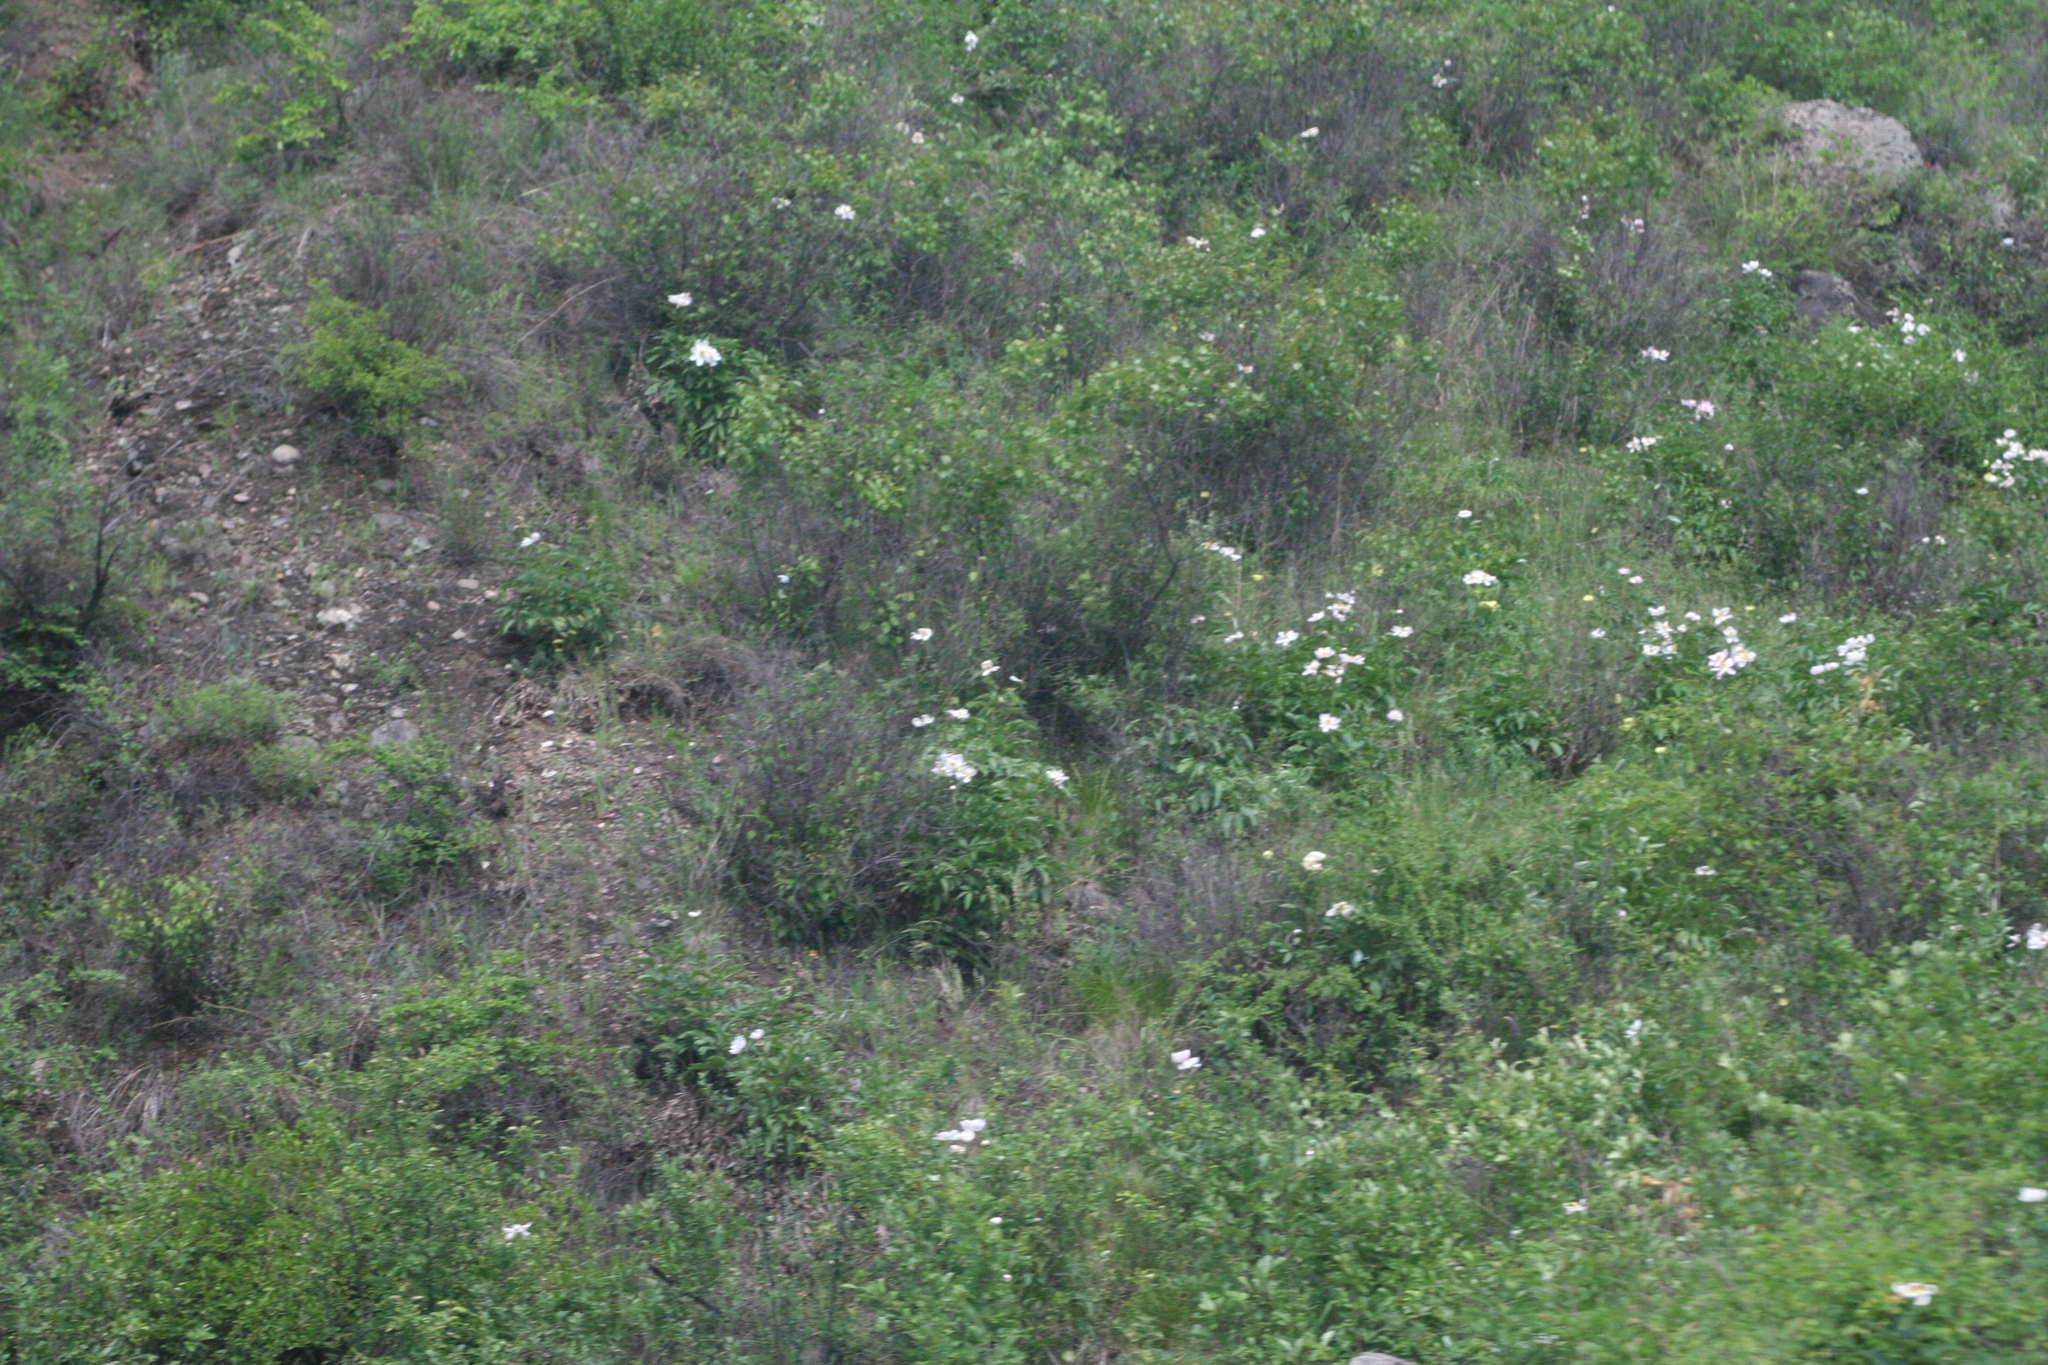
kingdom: Plantae
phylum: Tracheophyta
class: Magnoliopsida
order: Saxifragales
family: Paeoniaceae
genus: Paeonia
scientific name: Paeonia lactiflora
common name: Chinese peony
